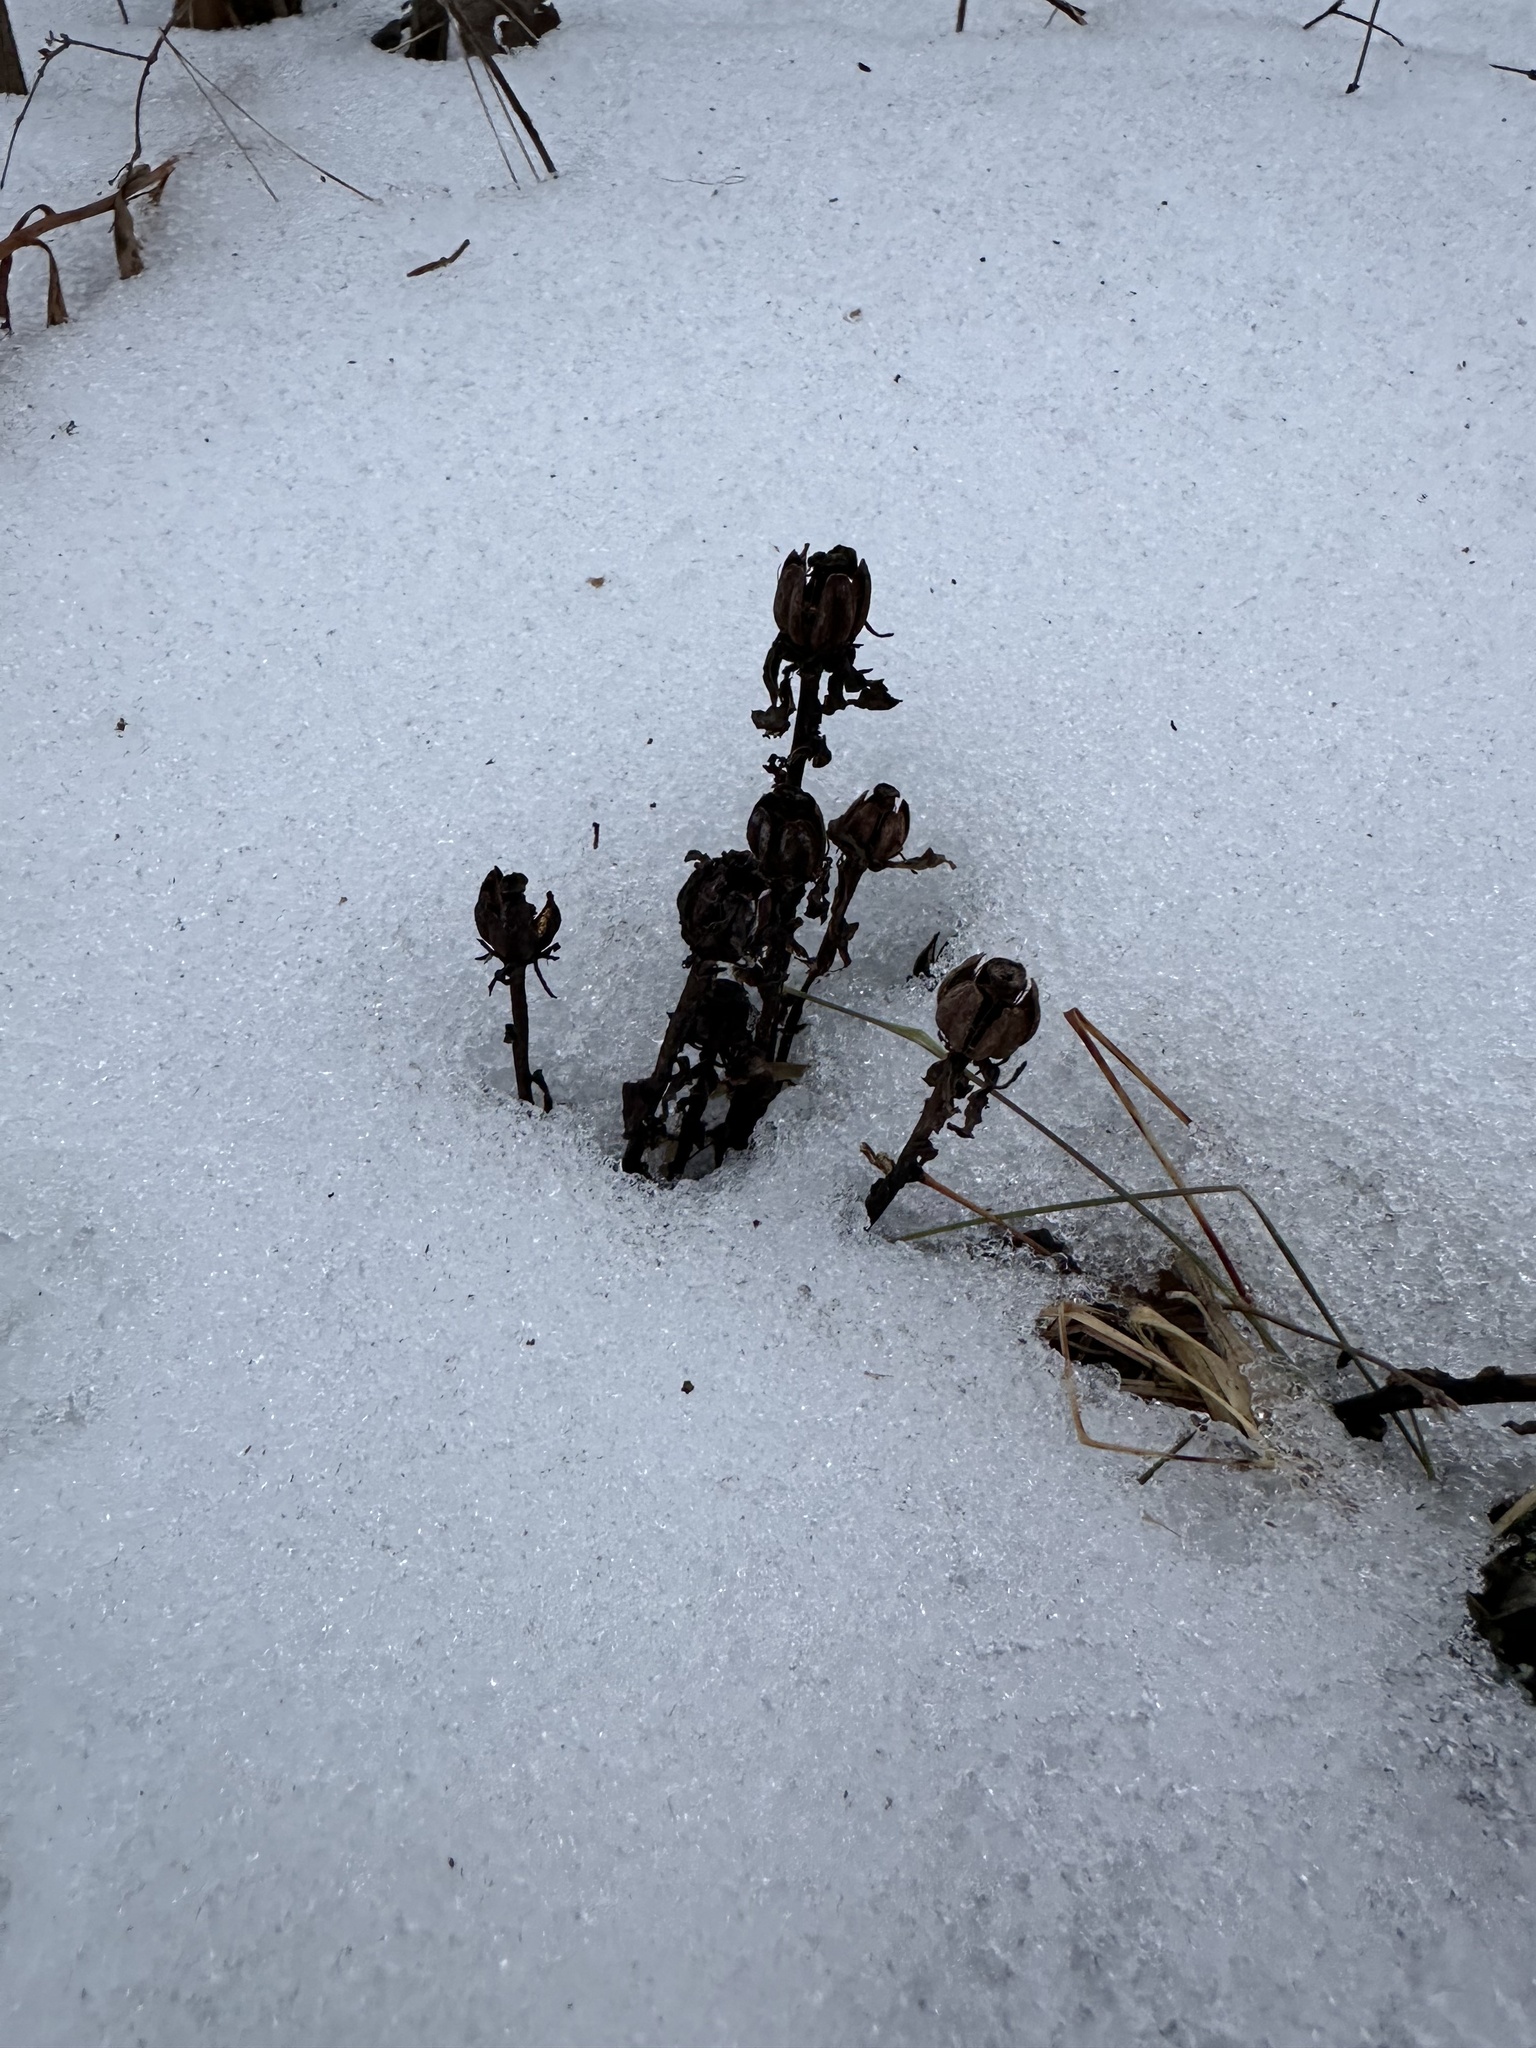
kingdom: Plantae
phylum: Tracheophyta
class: Magnoliopsida
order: Ericales
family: Ericaceae
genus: Monotropa
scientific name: Monotropa uniflora
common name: Convulsion root
